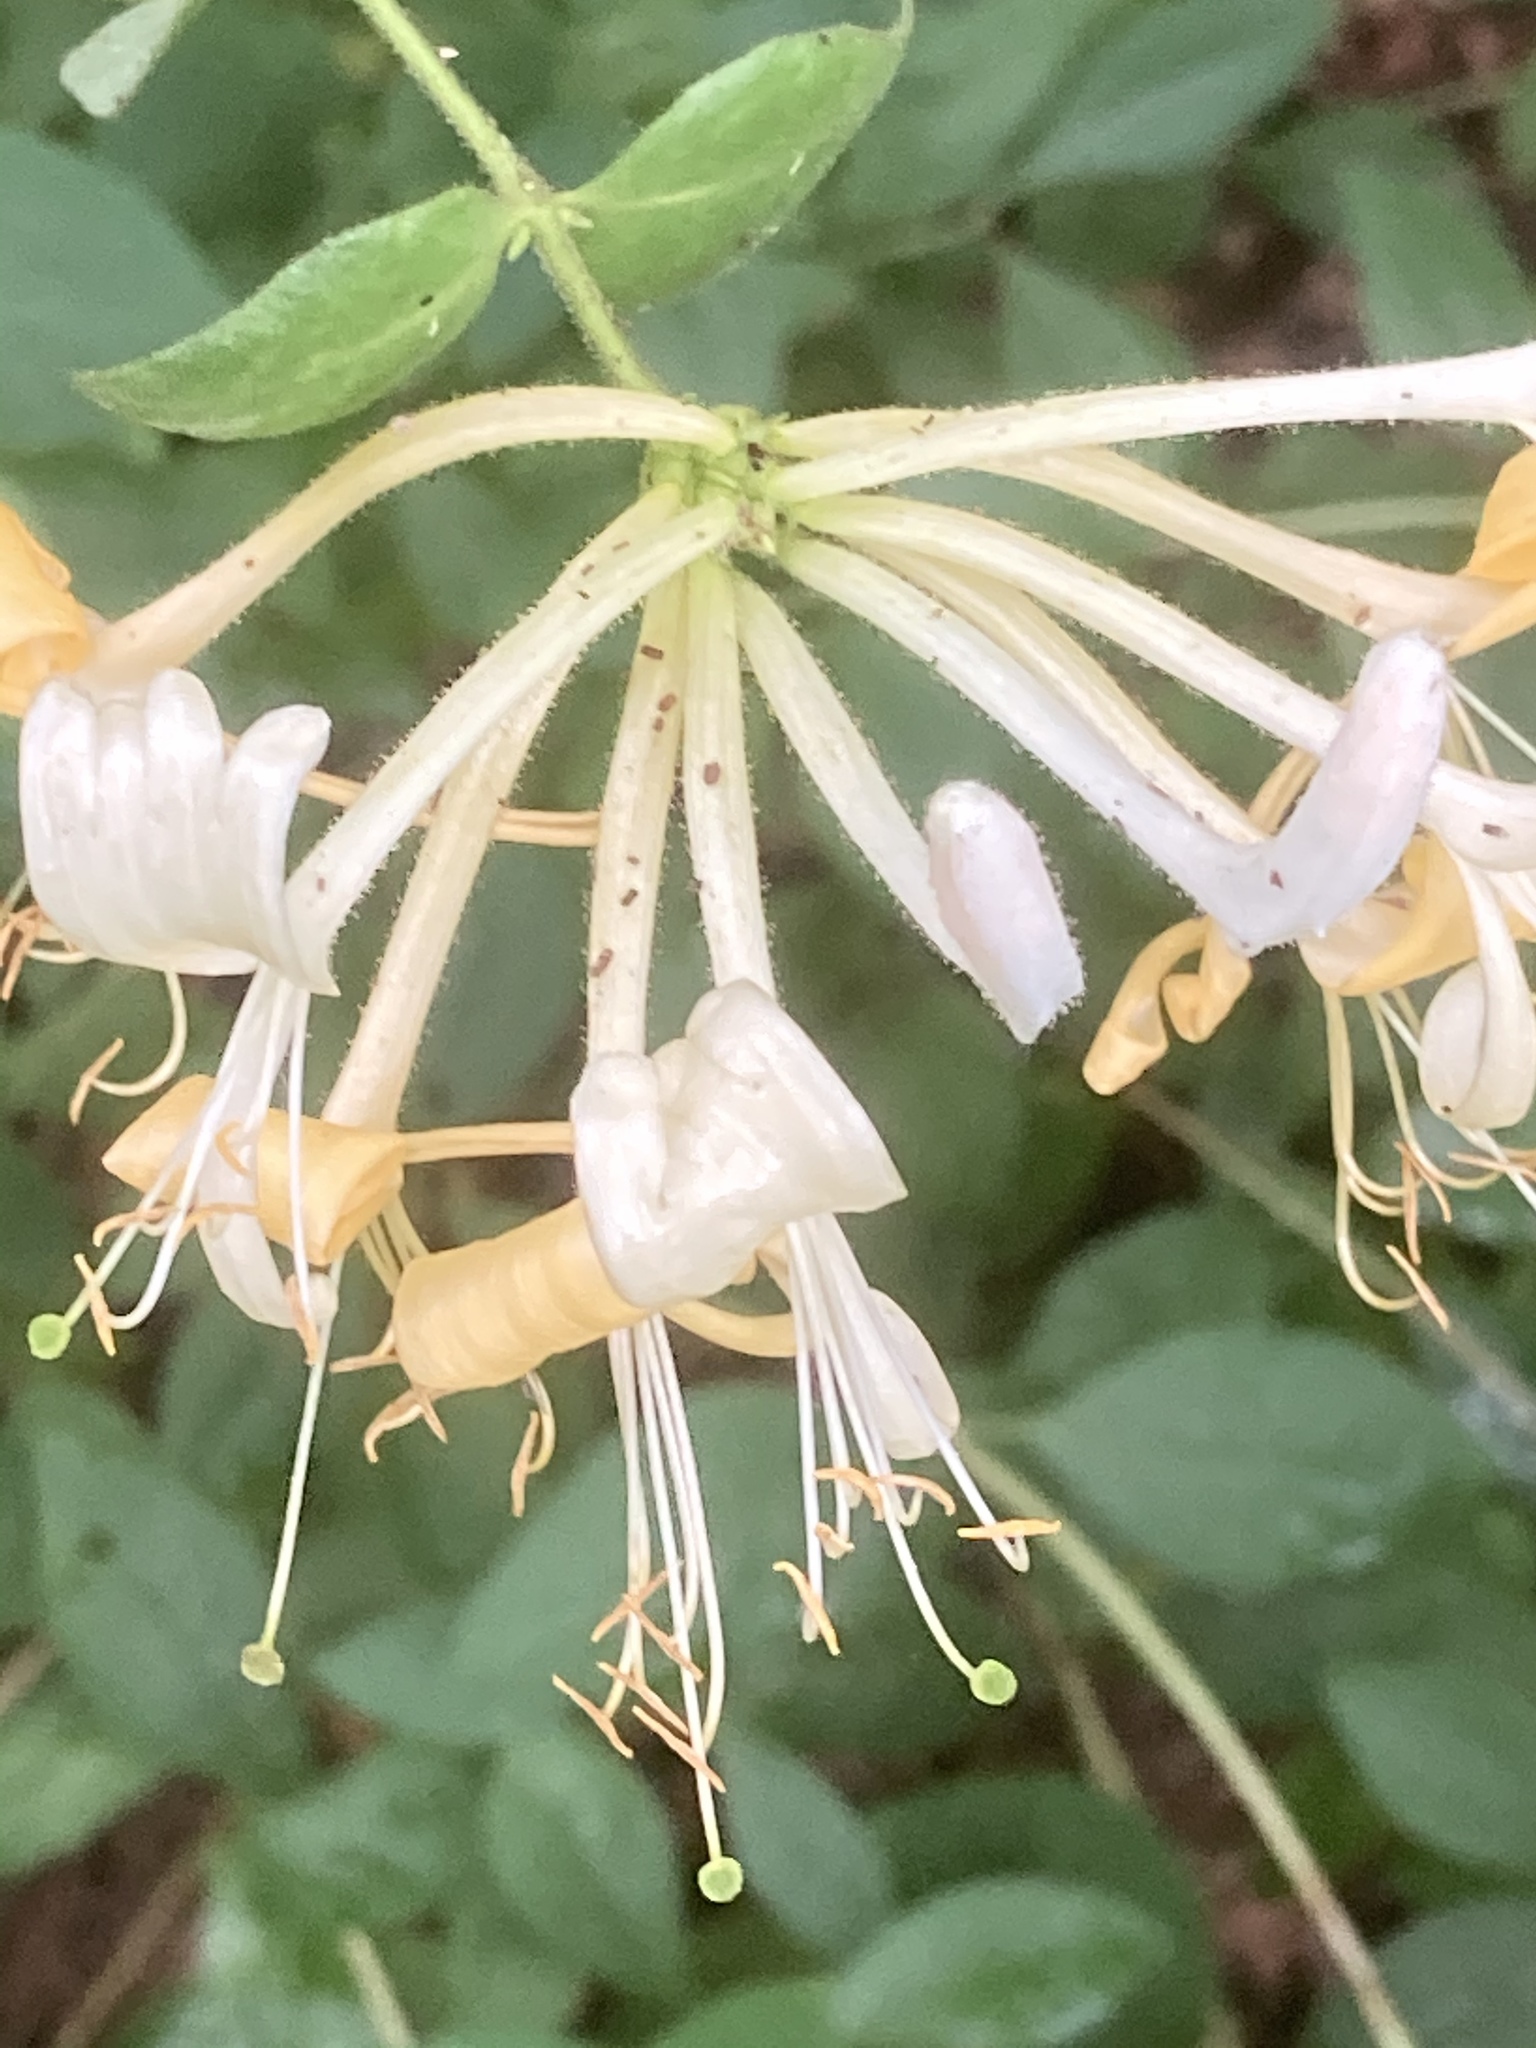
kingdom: Plantae
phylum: Tracheophyta
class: Magnoliopsida
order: Dipsacales
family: Caprifoliaceae
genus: Lonicera
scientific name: Lonicera periclymenum
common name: European honeysuckle
